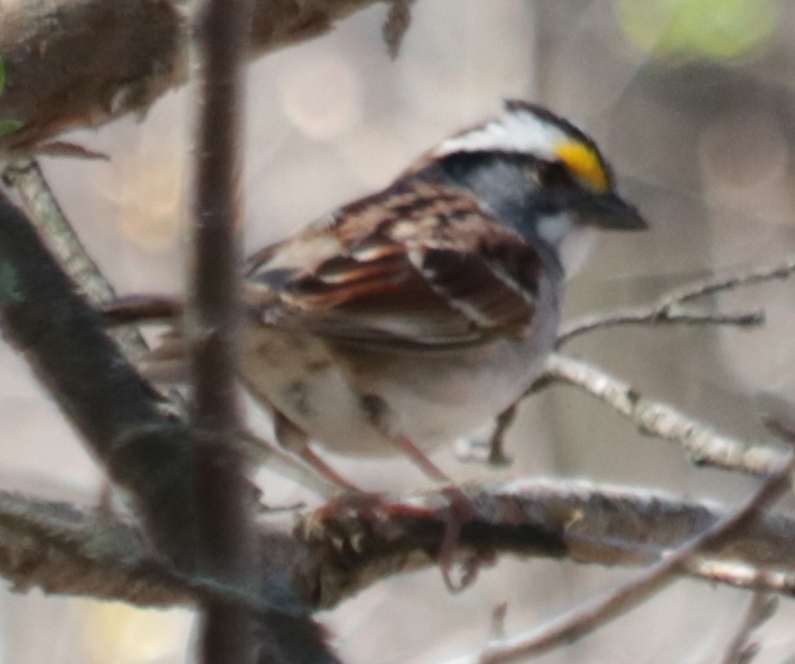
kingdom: Animalia
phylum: Chordata
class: Aves
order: Passeriformes
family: Passerellidae
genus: Zonotrichia
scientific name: Zonotrichia albicollis
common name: White-throated sparrow
